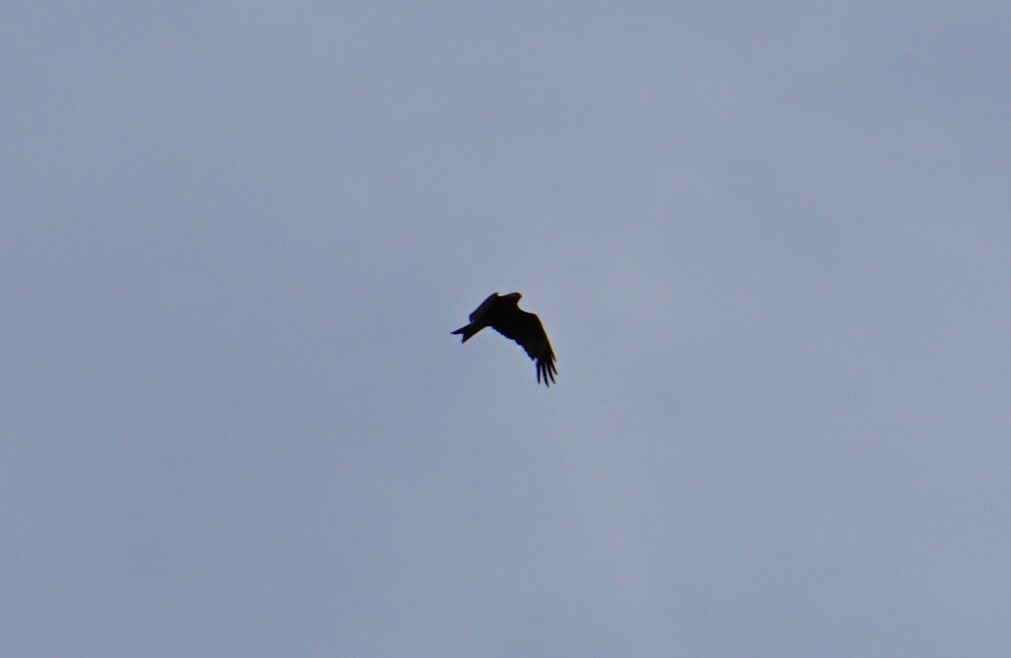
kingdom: Animalia
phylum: Chordata
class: Aves
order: Accipitriformes
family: Accipitridae
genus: Milvus
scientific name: Milvus milvus
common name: Red kite
